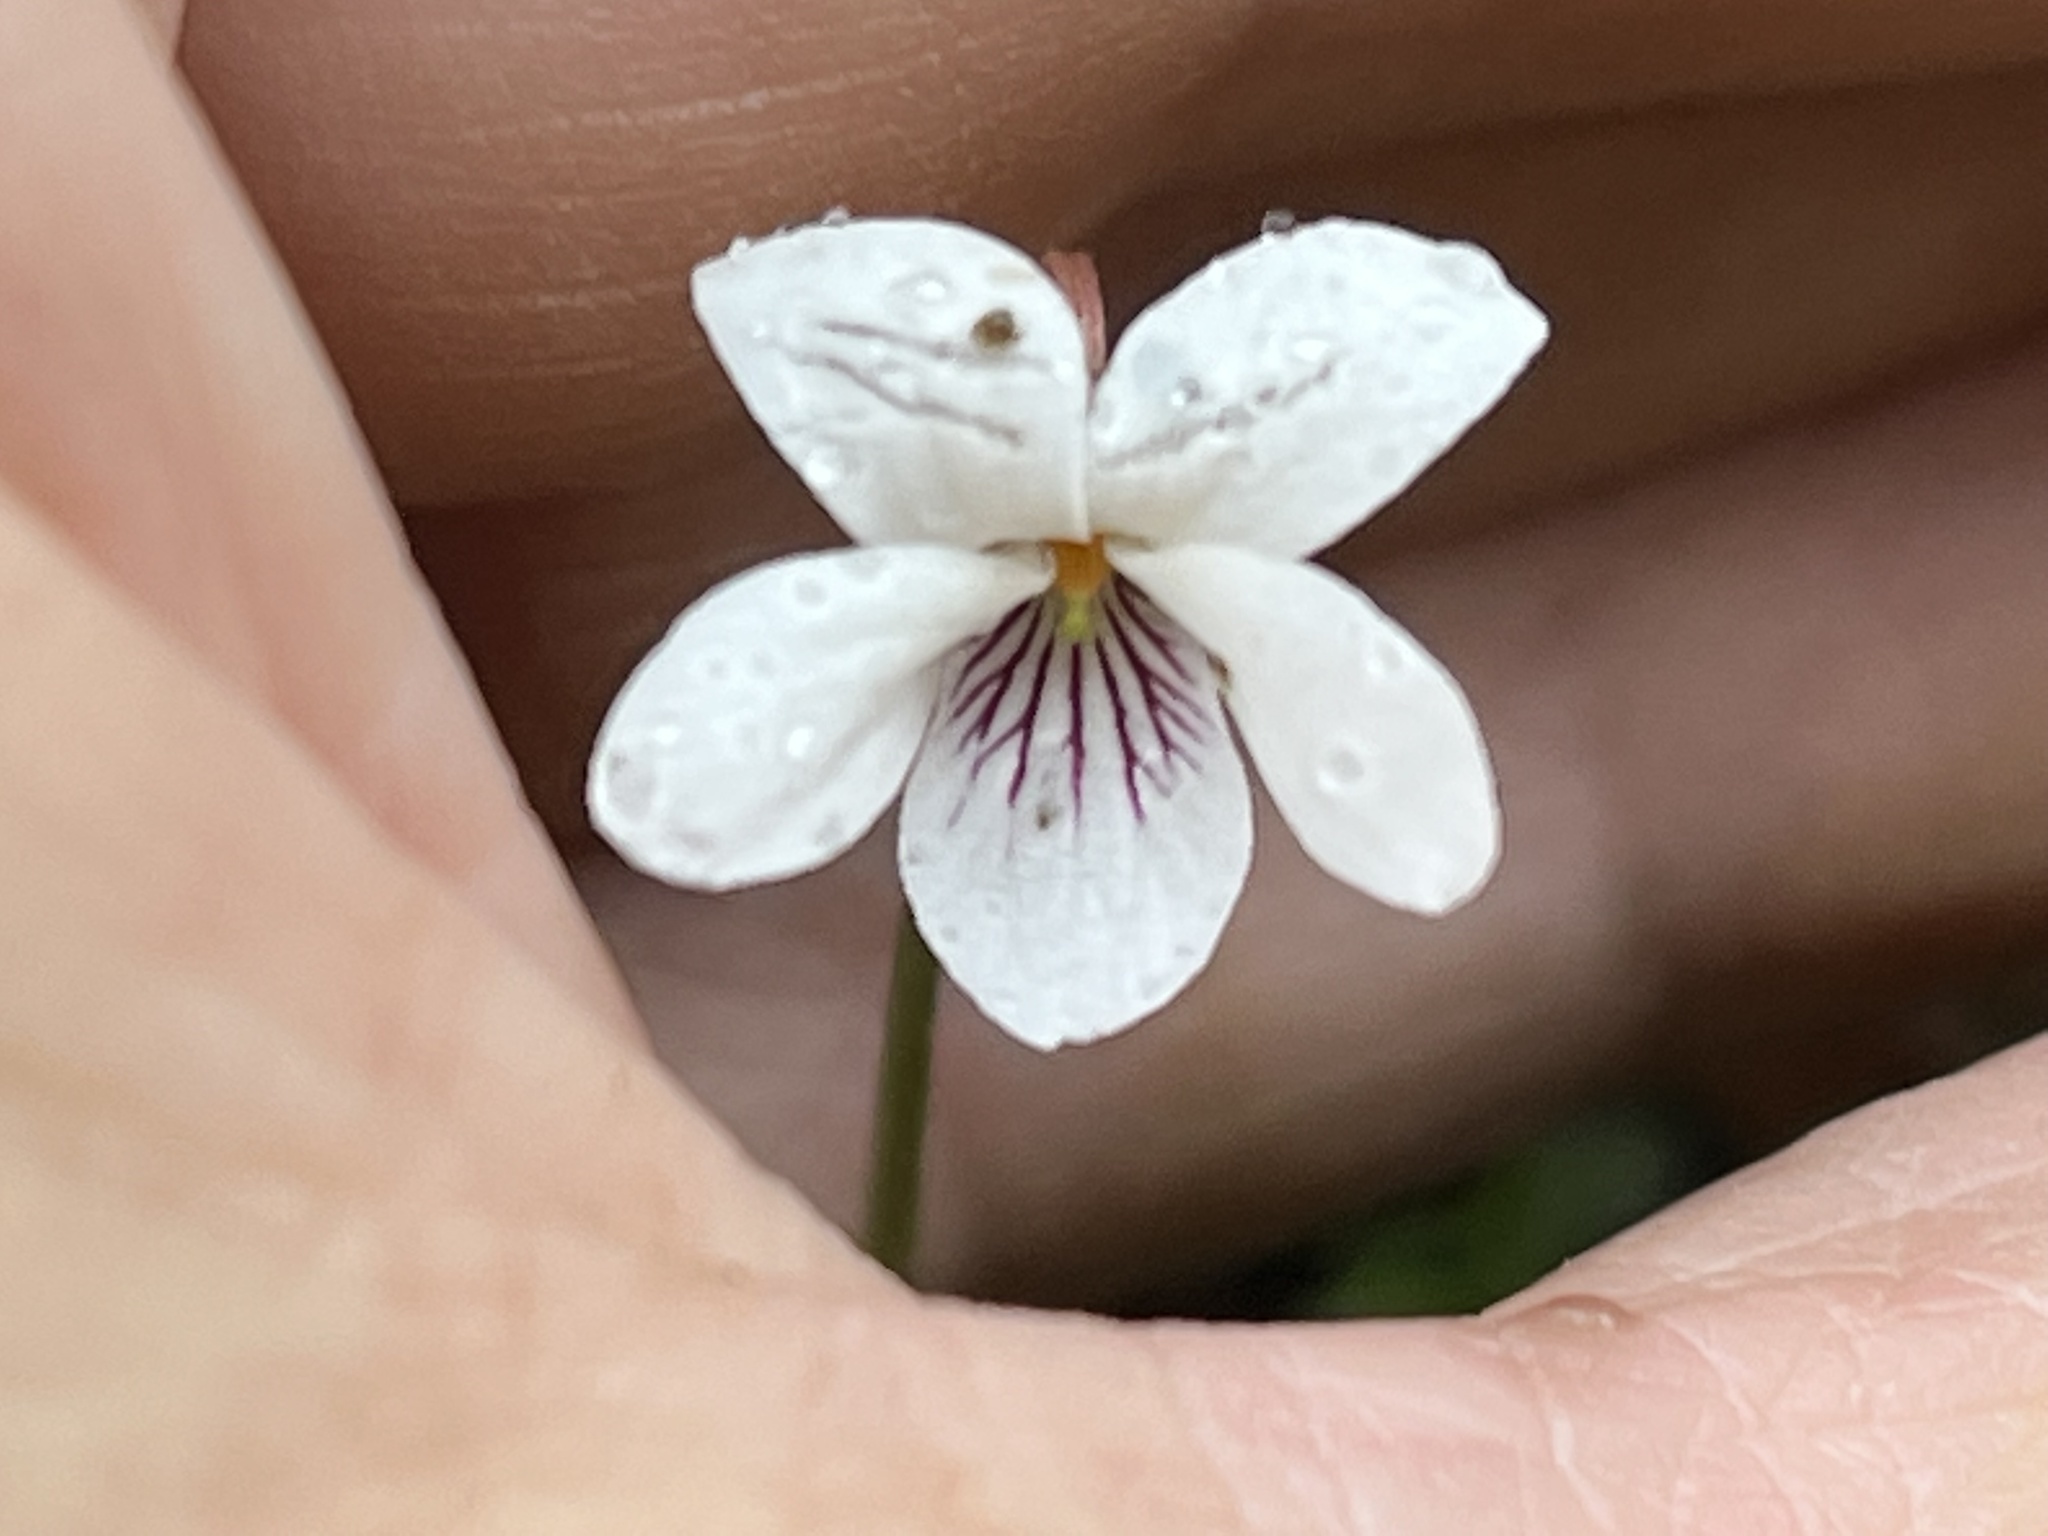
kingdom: Plantae
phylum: Tracheophyta
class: Magnoliopsida
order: Malpighiales
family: Violaceae
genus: Viola
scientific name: Viola blanda
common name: Sweet white violet
